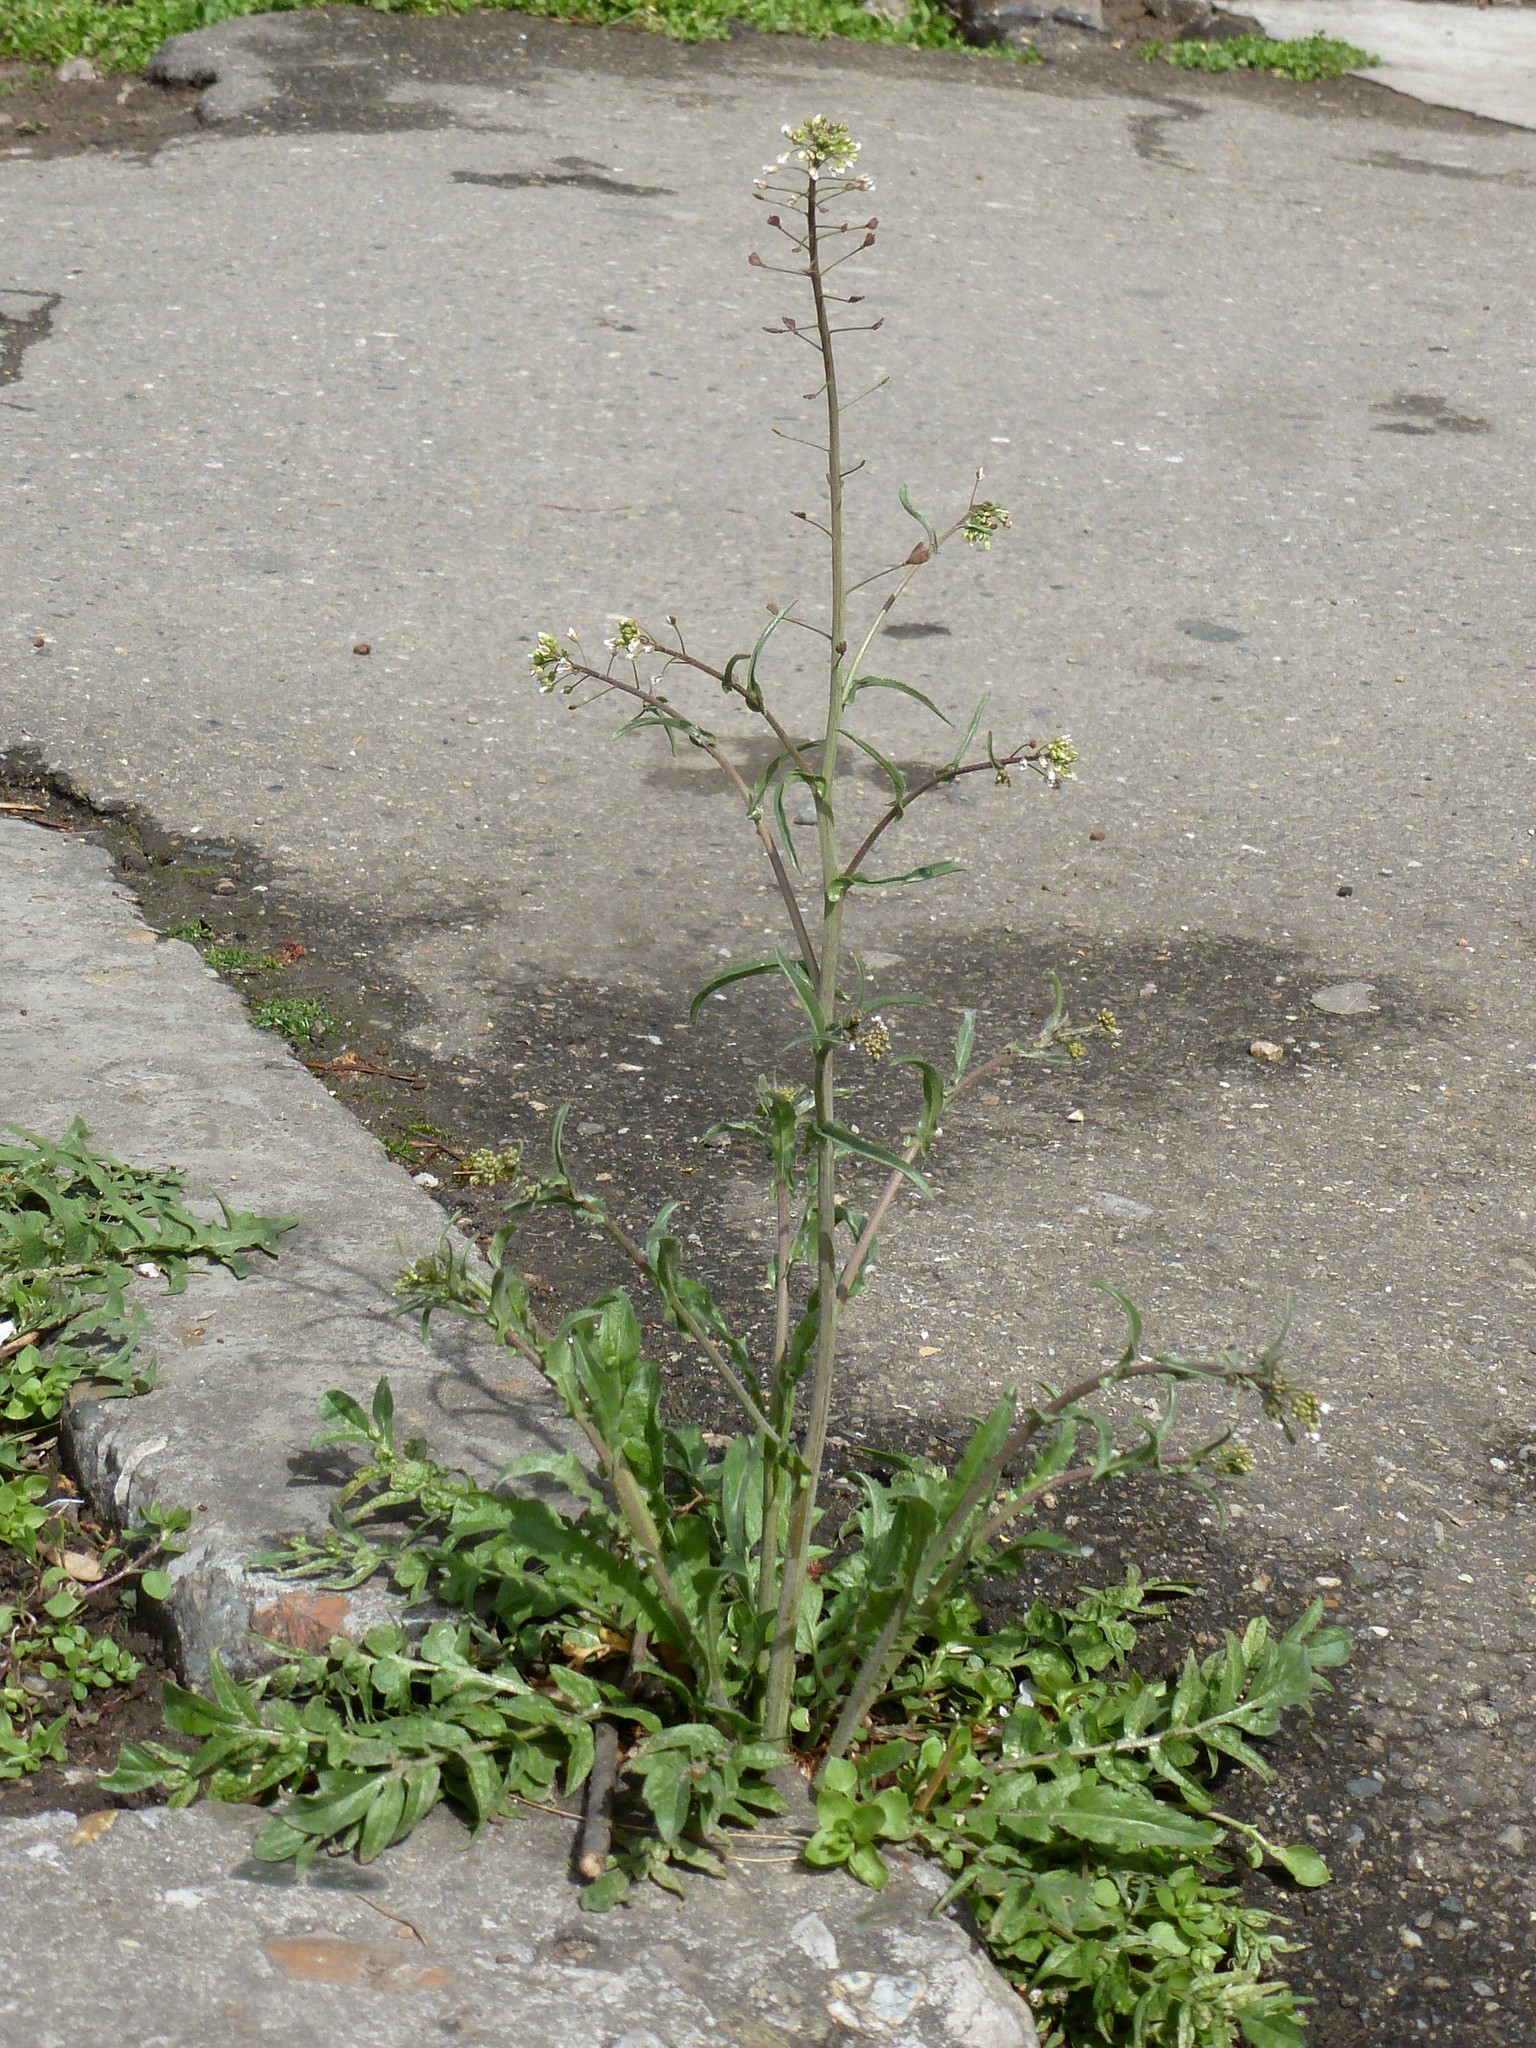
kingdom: Plantae
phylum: Tracheophyta
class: Magnoliopsida
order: Brassicales
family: Brassicaceae
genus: Capsella
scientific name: Capsella bursa-pastoris
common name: Shepherd's purse
